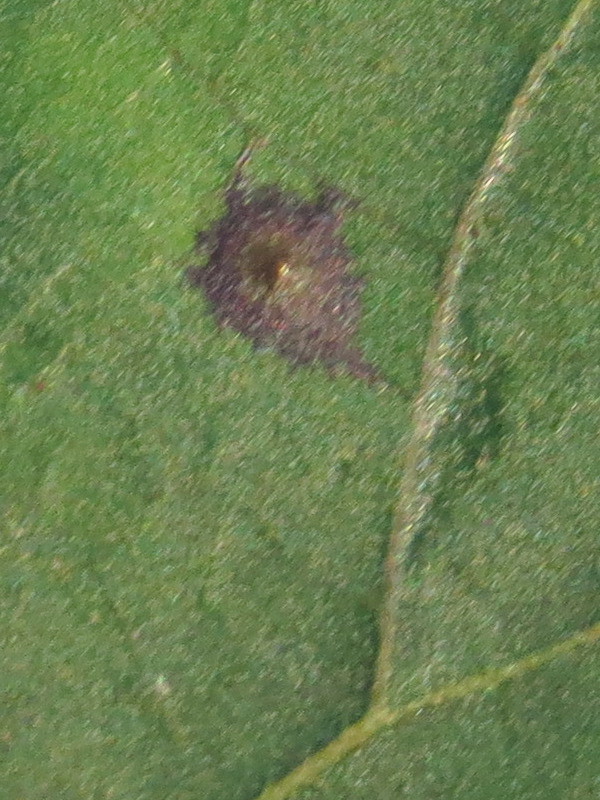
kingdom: Animalia
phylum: Arthropoda
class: Insecta
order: Diptera
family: Cecidomyiidae
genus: Caryomyia
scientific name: Caryomyia flaticrustum
